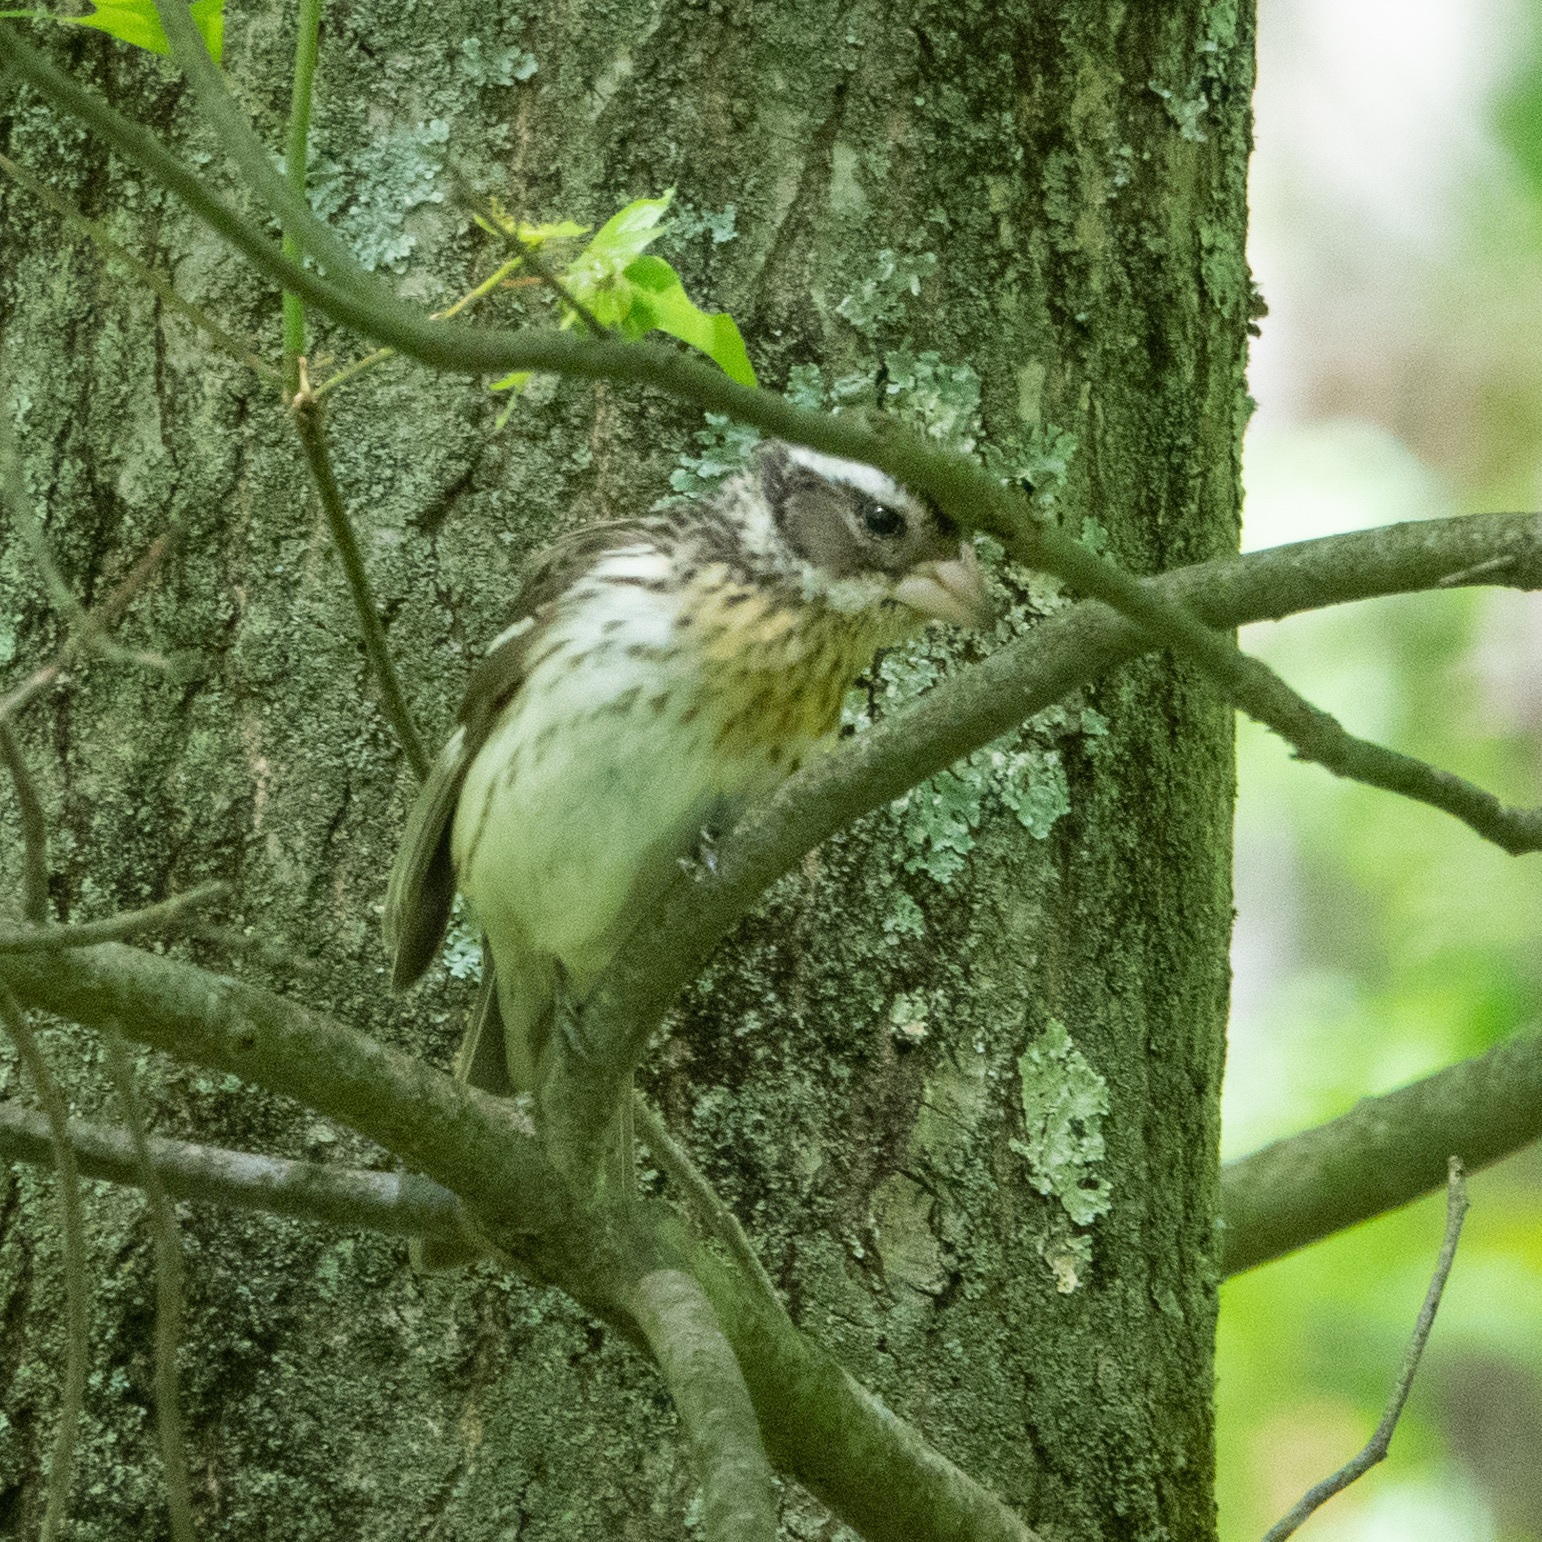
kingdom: Animalia
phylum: Chordata
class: Aves
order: Passeriformes
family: Cardinalidae
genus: Pheucticus
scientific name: Pheucticus ludovicianus
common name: Rose-breasted grosbeak
